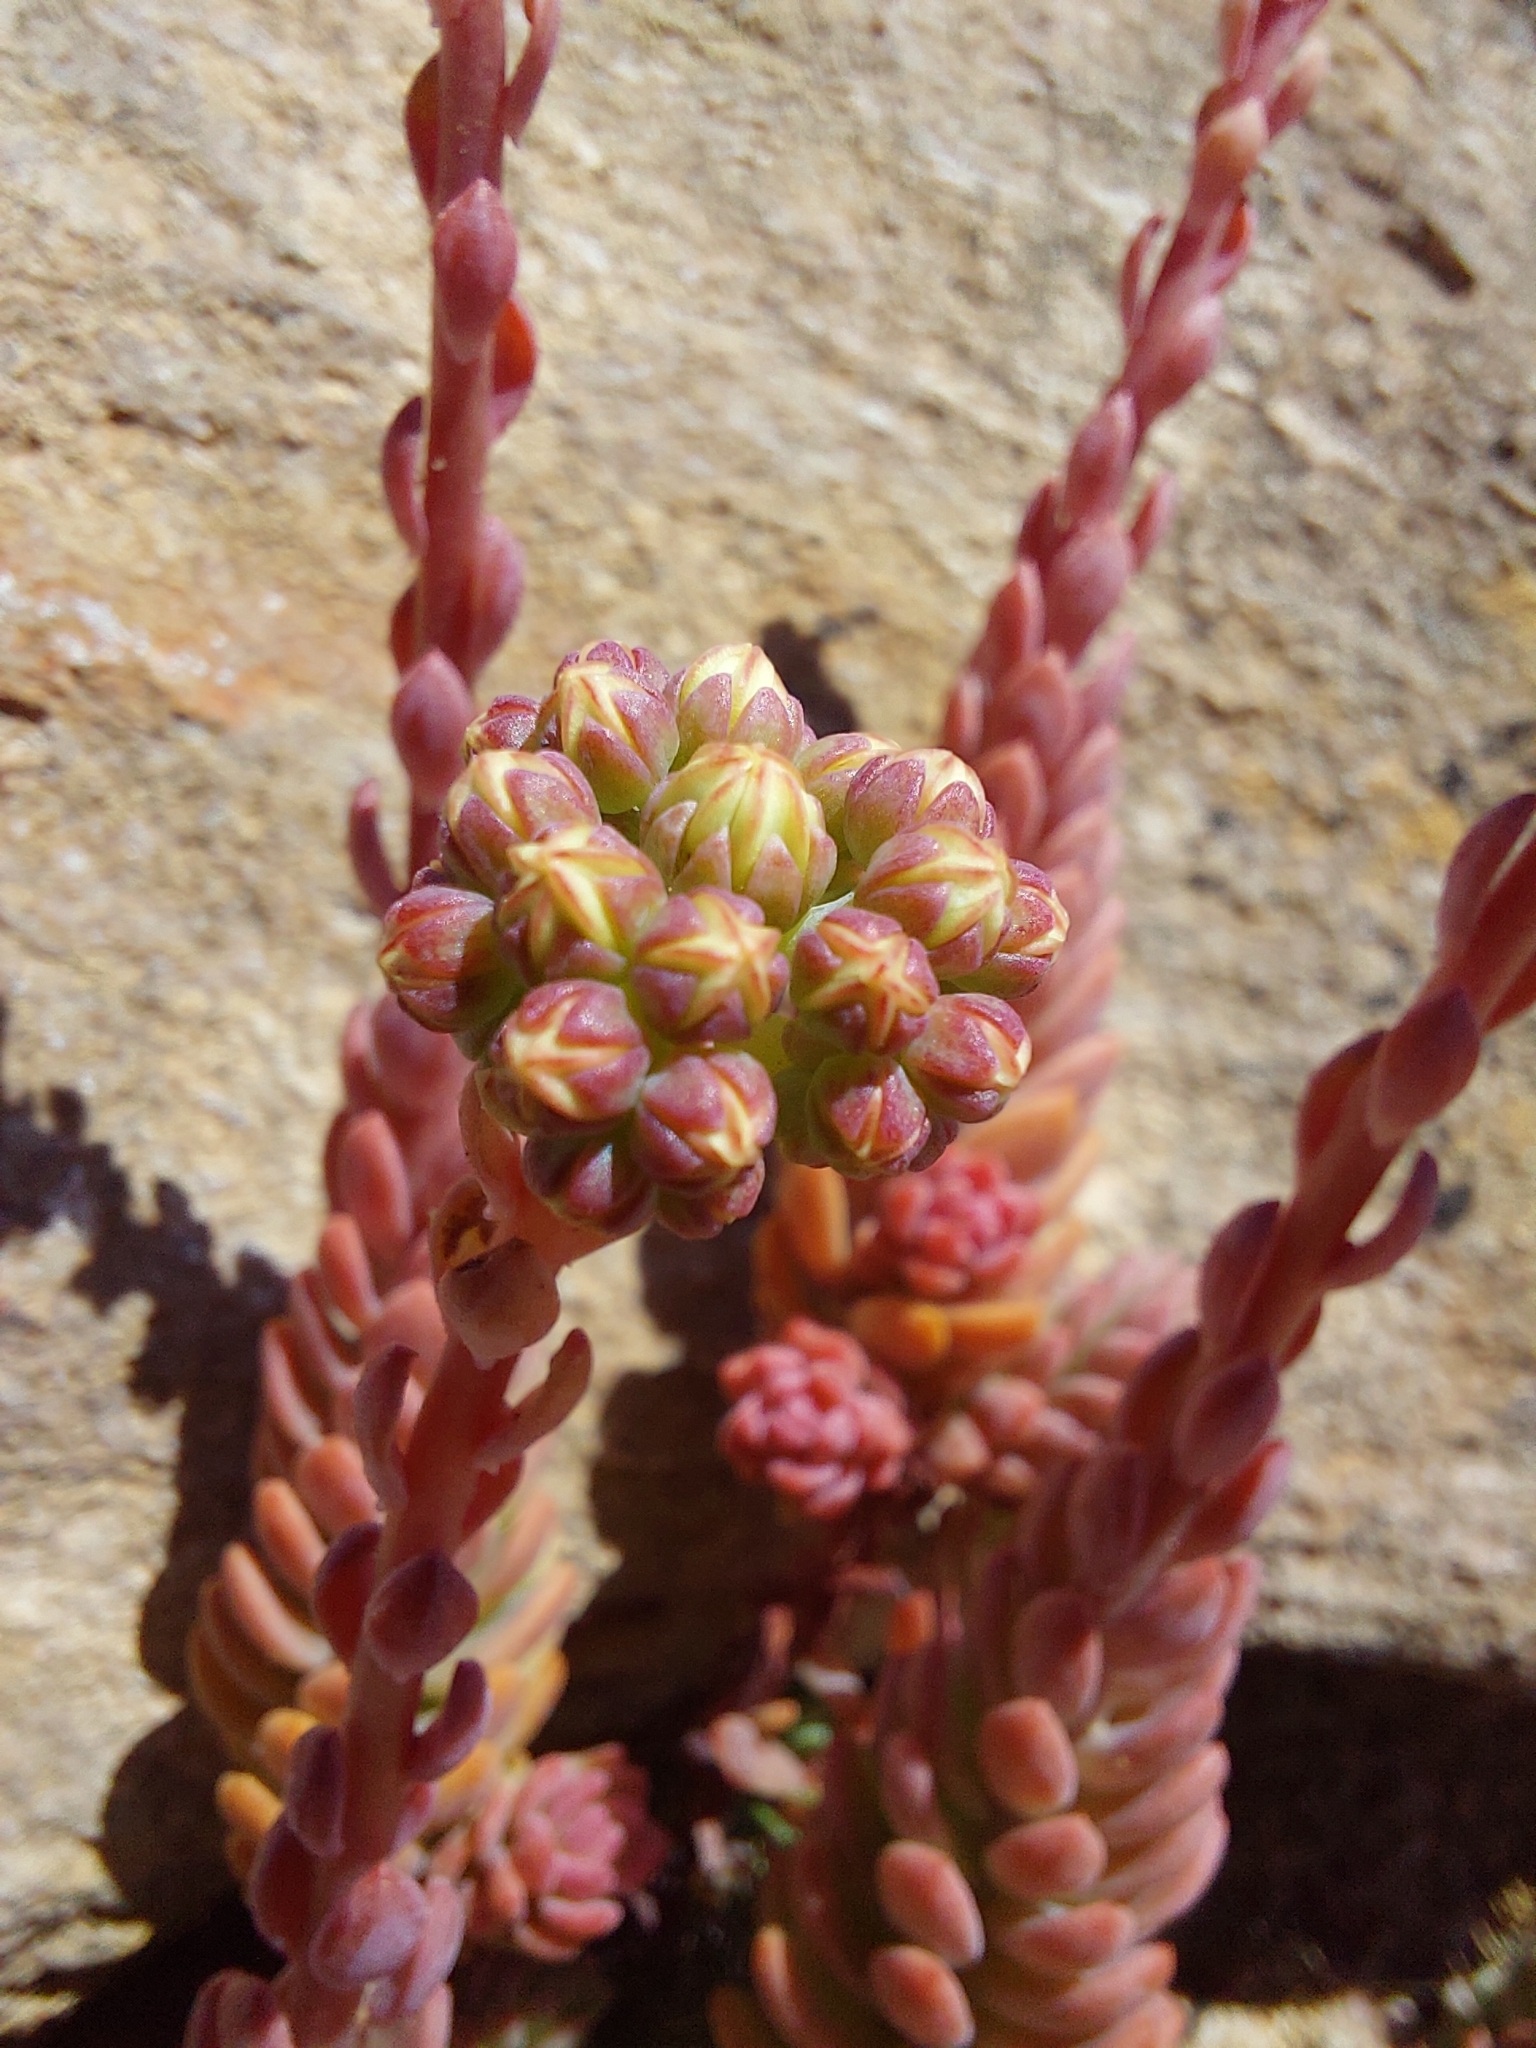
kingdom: Plantae
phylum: Tracheophyta
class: Magnoliopsida
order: Saxifragales
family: Crassulaceae
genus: Petrosedum
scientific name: Petrosedum sediforme
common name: Pale stonecrop
